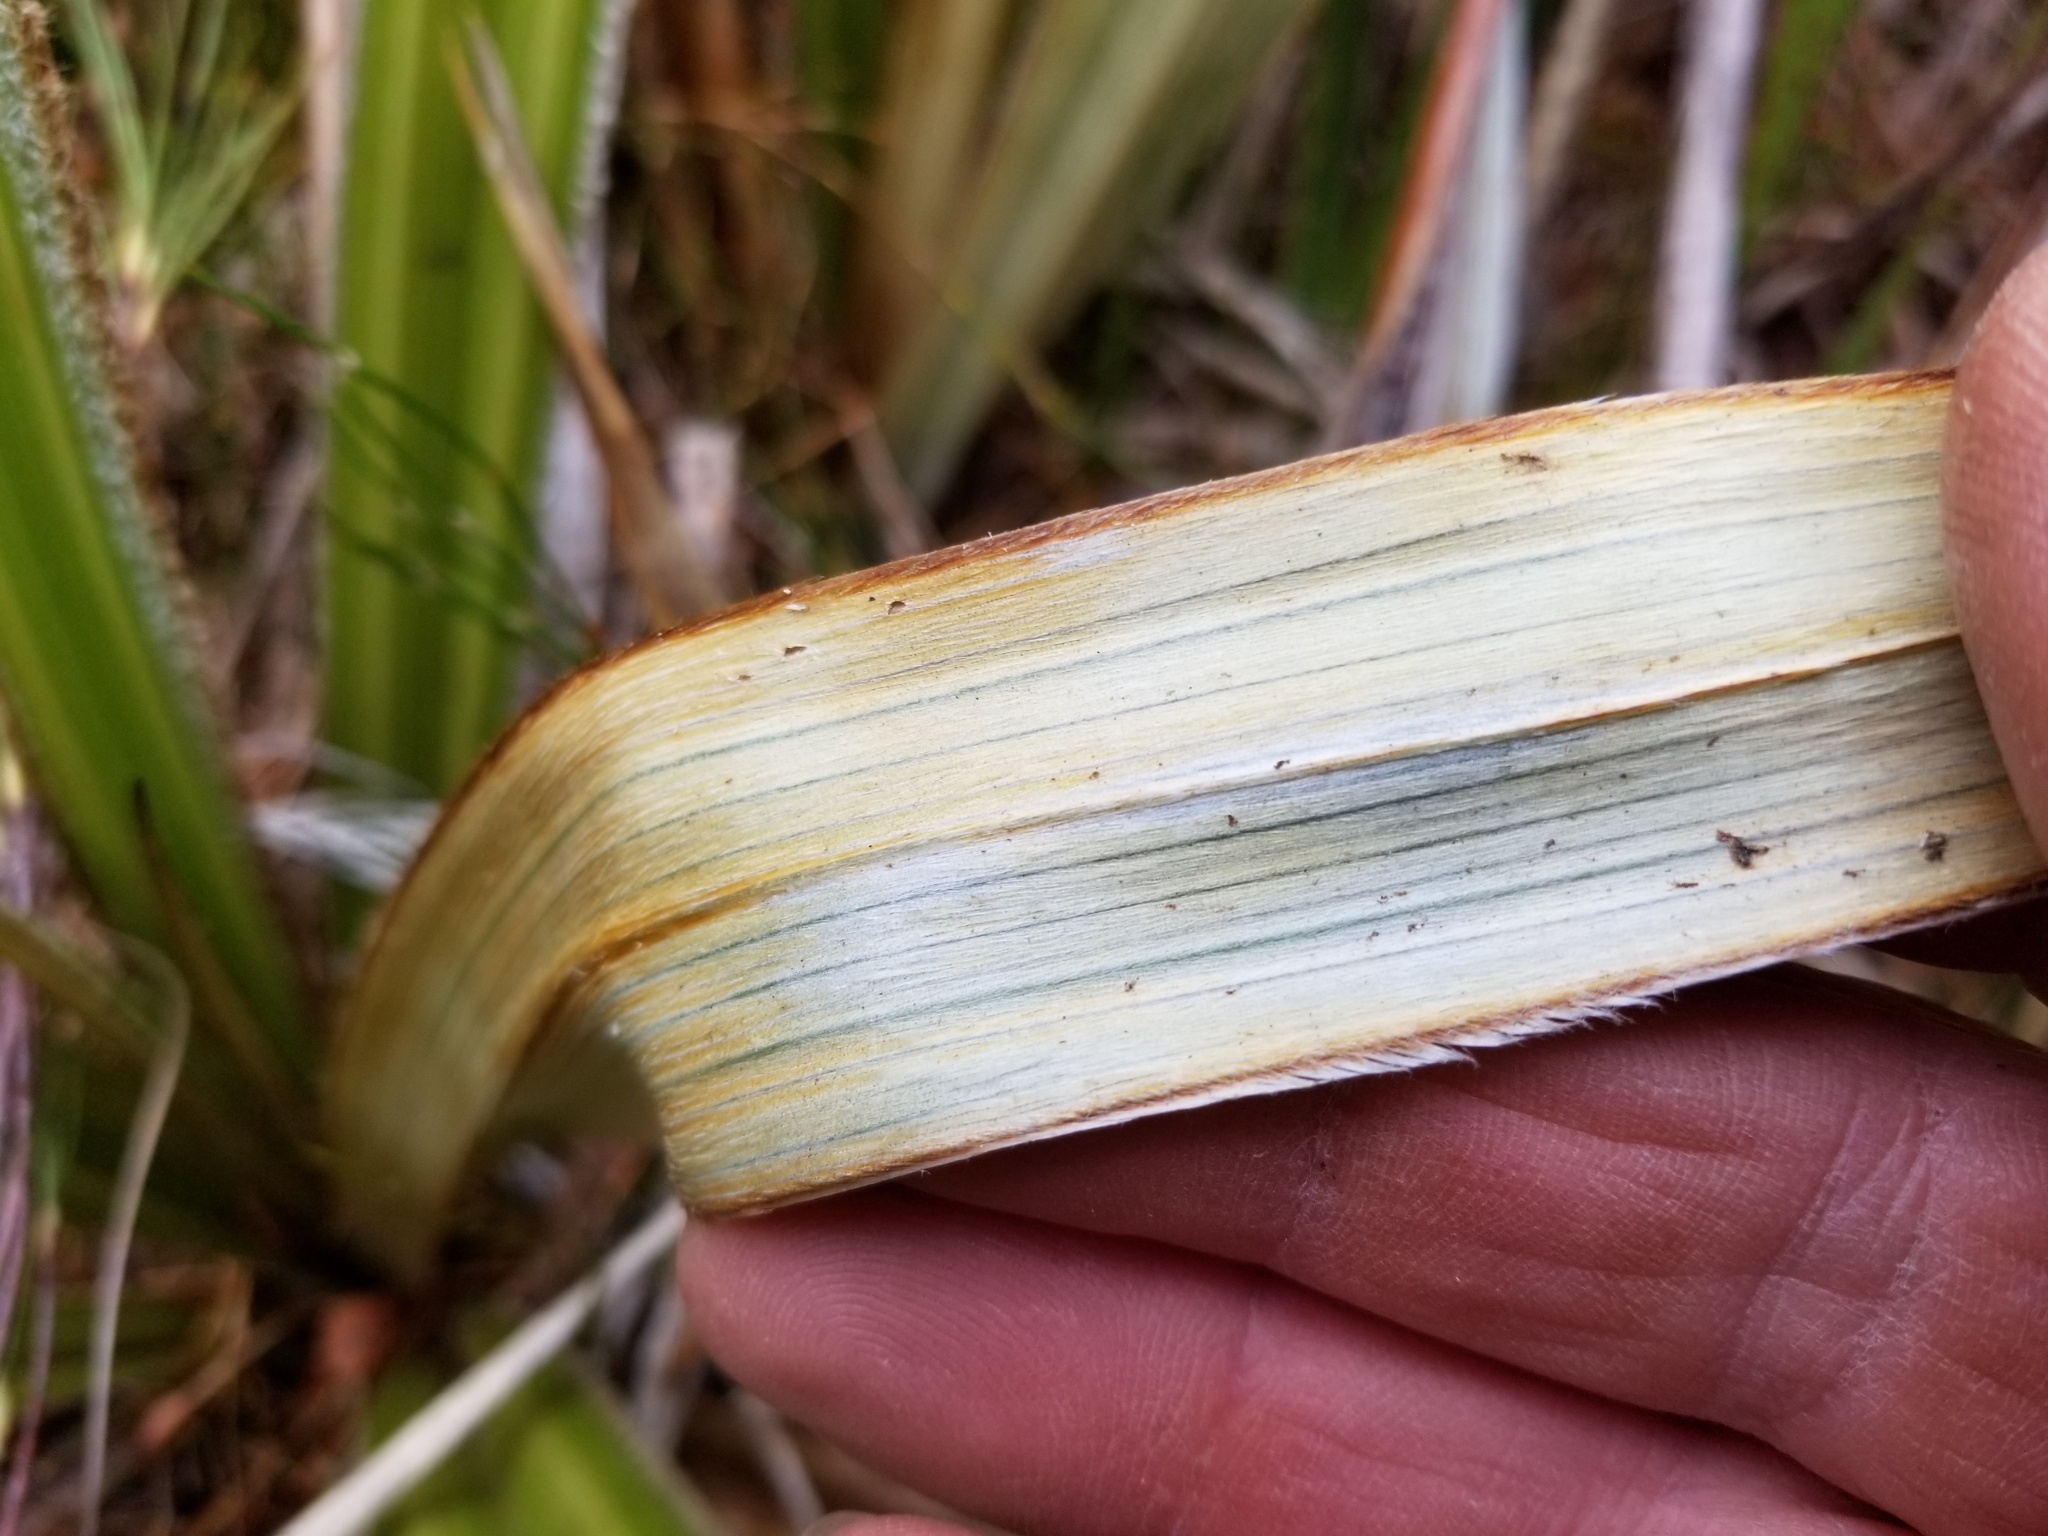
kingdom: Plantae
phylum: Tracheophyta
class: Liliopsida
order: Asparagales
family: Asteliaceae
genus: Astelia
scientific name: Astelia nervosa
